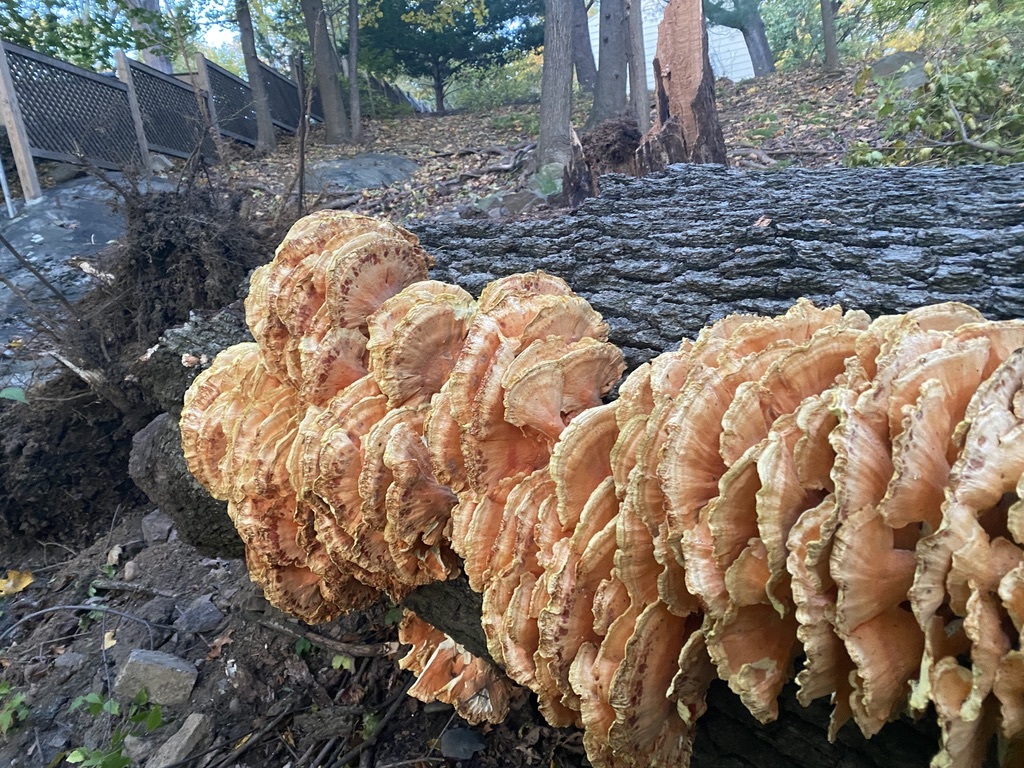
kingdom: Fungi
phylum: Basidiomycota
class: Agaricomycetes
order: Polyporales
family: Laetiporaceae
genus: Laetiporus
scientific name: Laetiporus sulphureus
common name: Chicken of the woods
